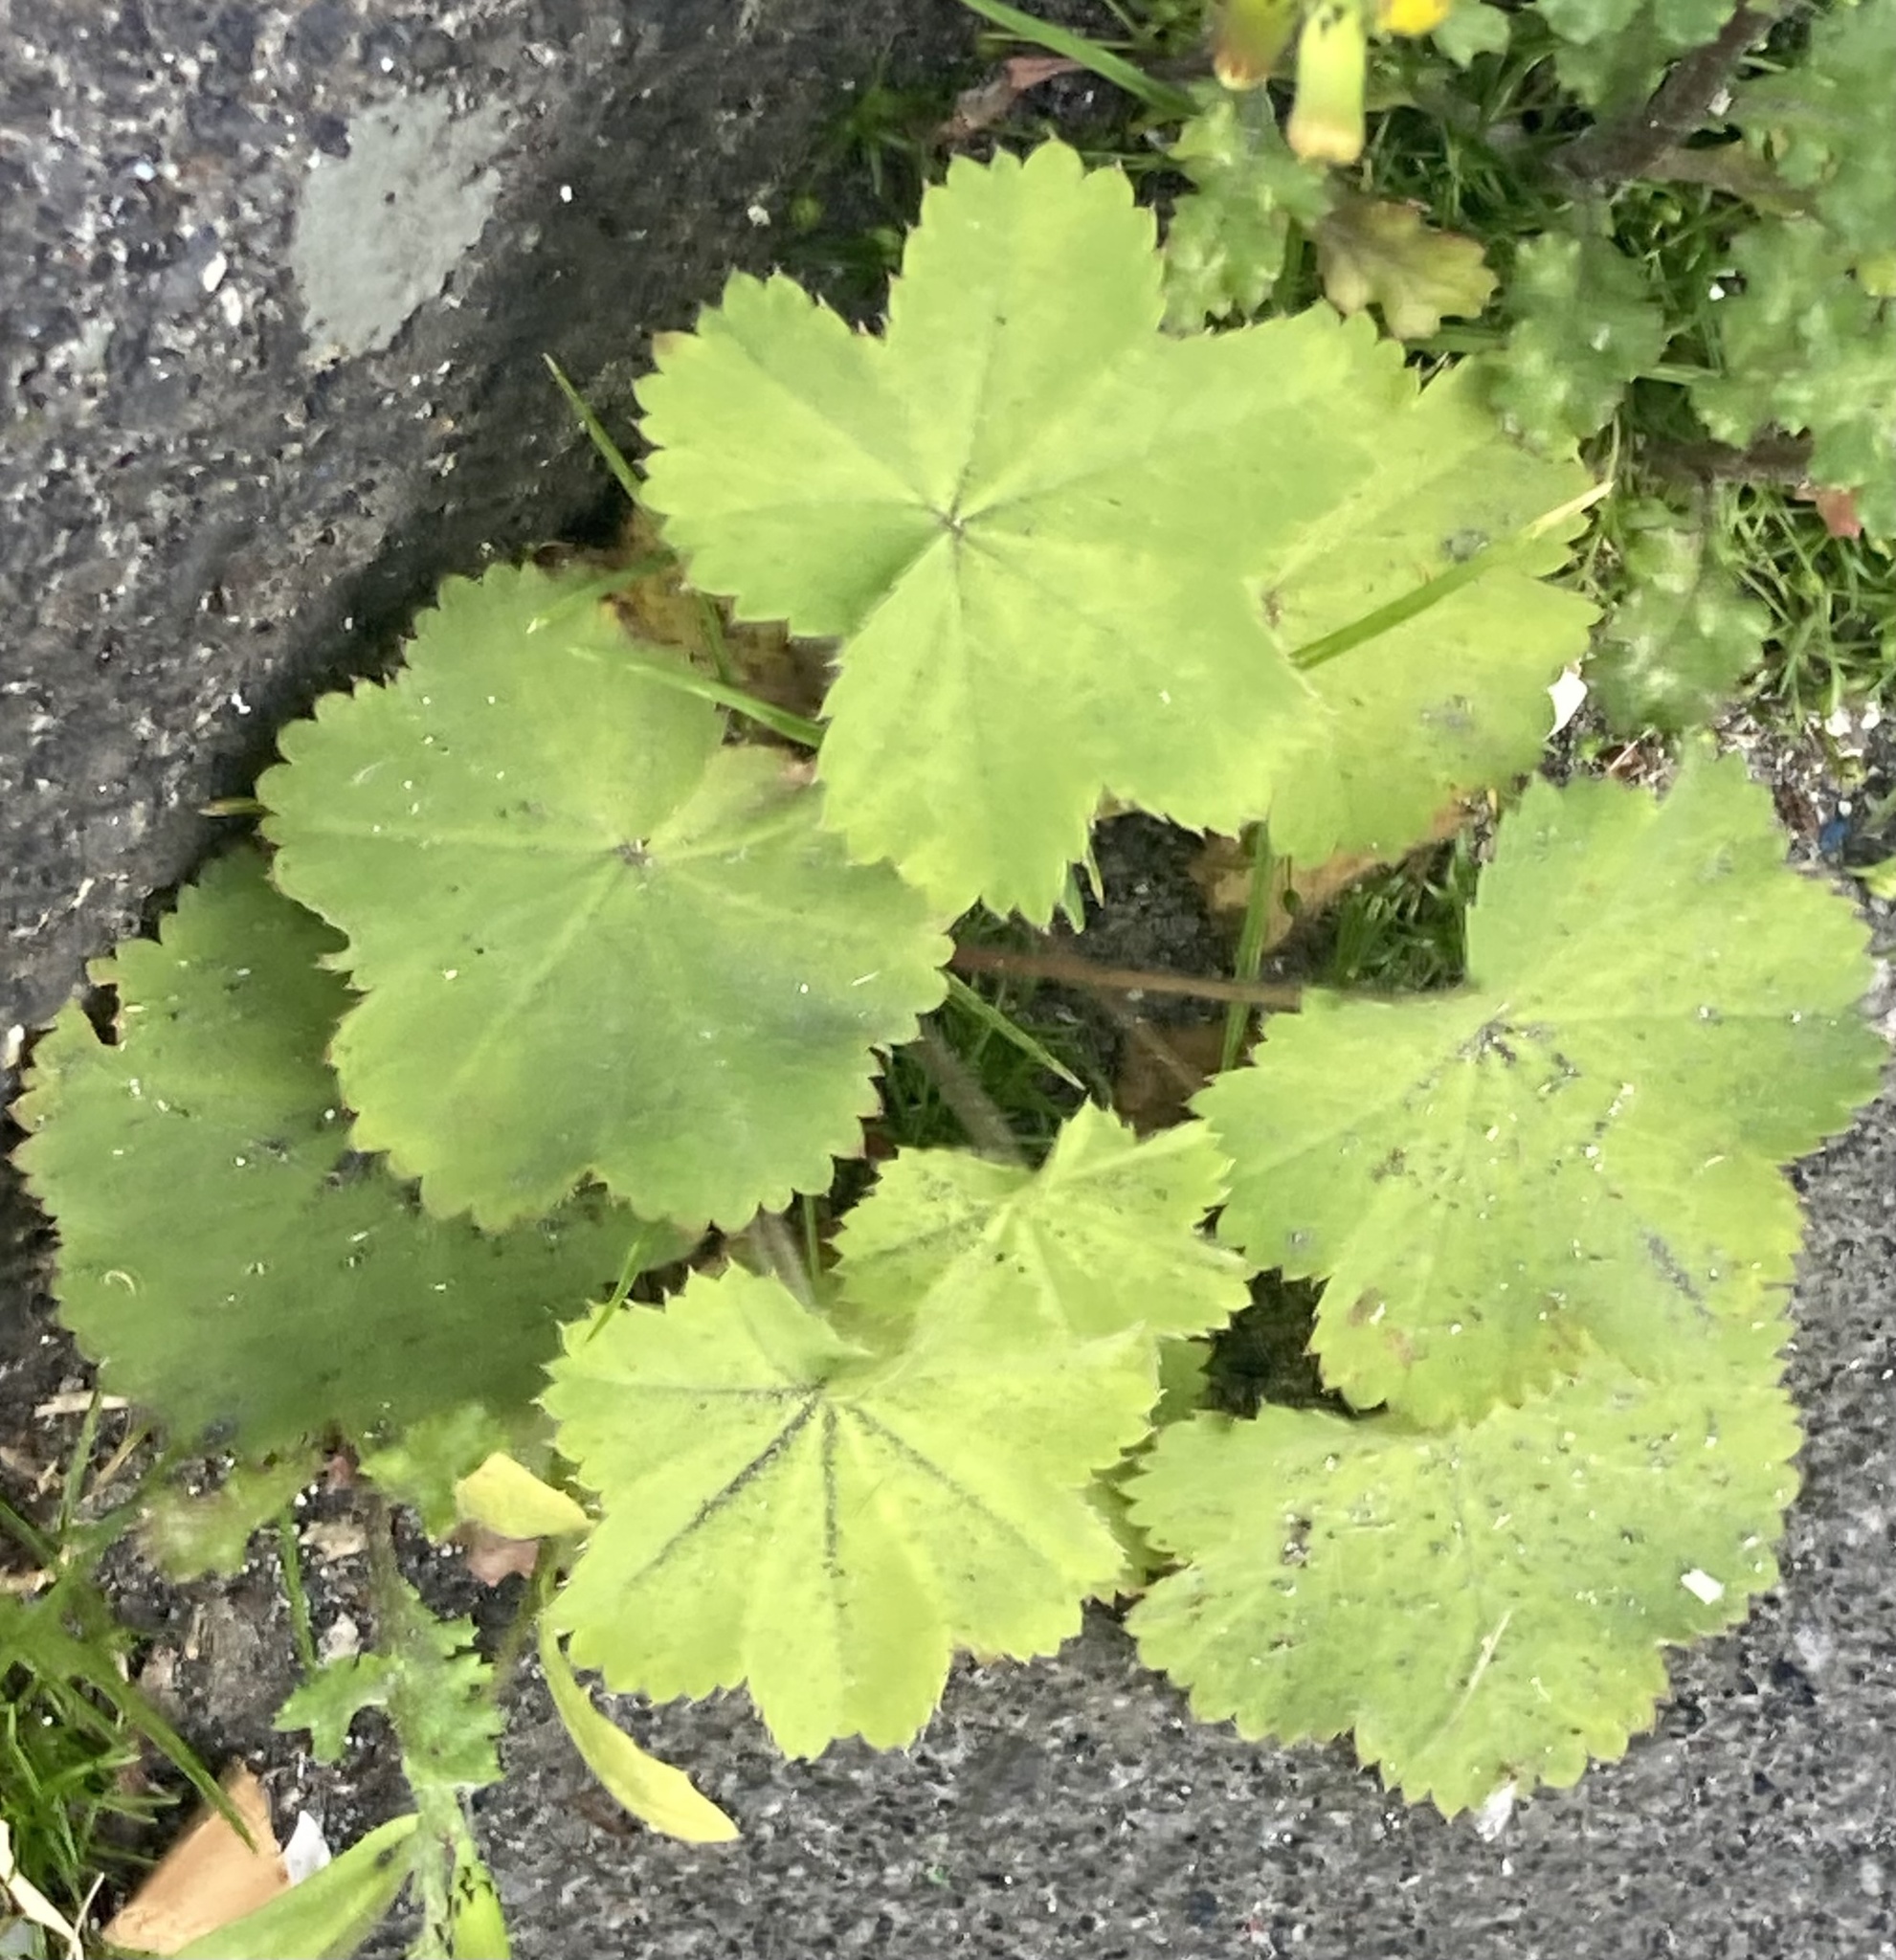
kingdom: Plantae
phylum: Tracheophyta
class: Magnoliopsida
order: Rosales
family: Rosaceae
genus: Alchemilla
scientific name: Alchemilla mollis
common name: Lady's-mantle
